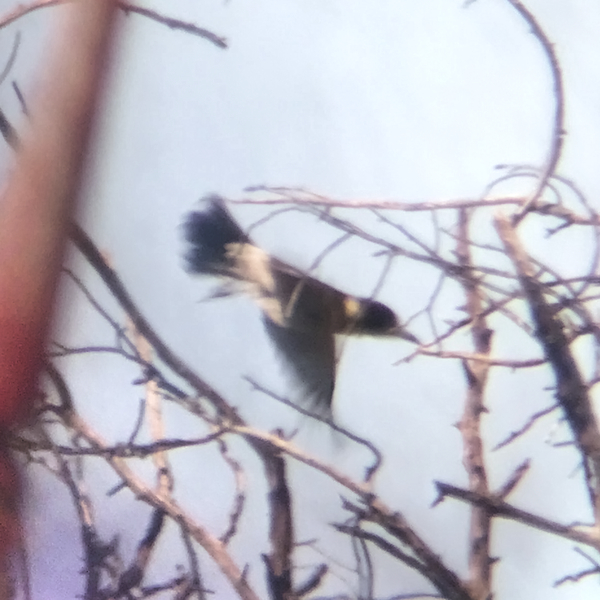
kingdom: Animalia
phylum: Chordata
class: Aves
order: Passeriformes
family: Cracticidae
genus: Cracticus
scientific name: Cracticus torquatus
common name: Grey butcherbird
